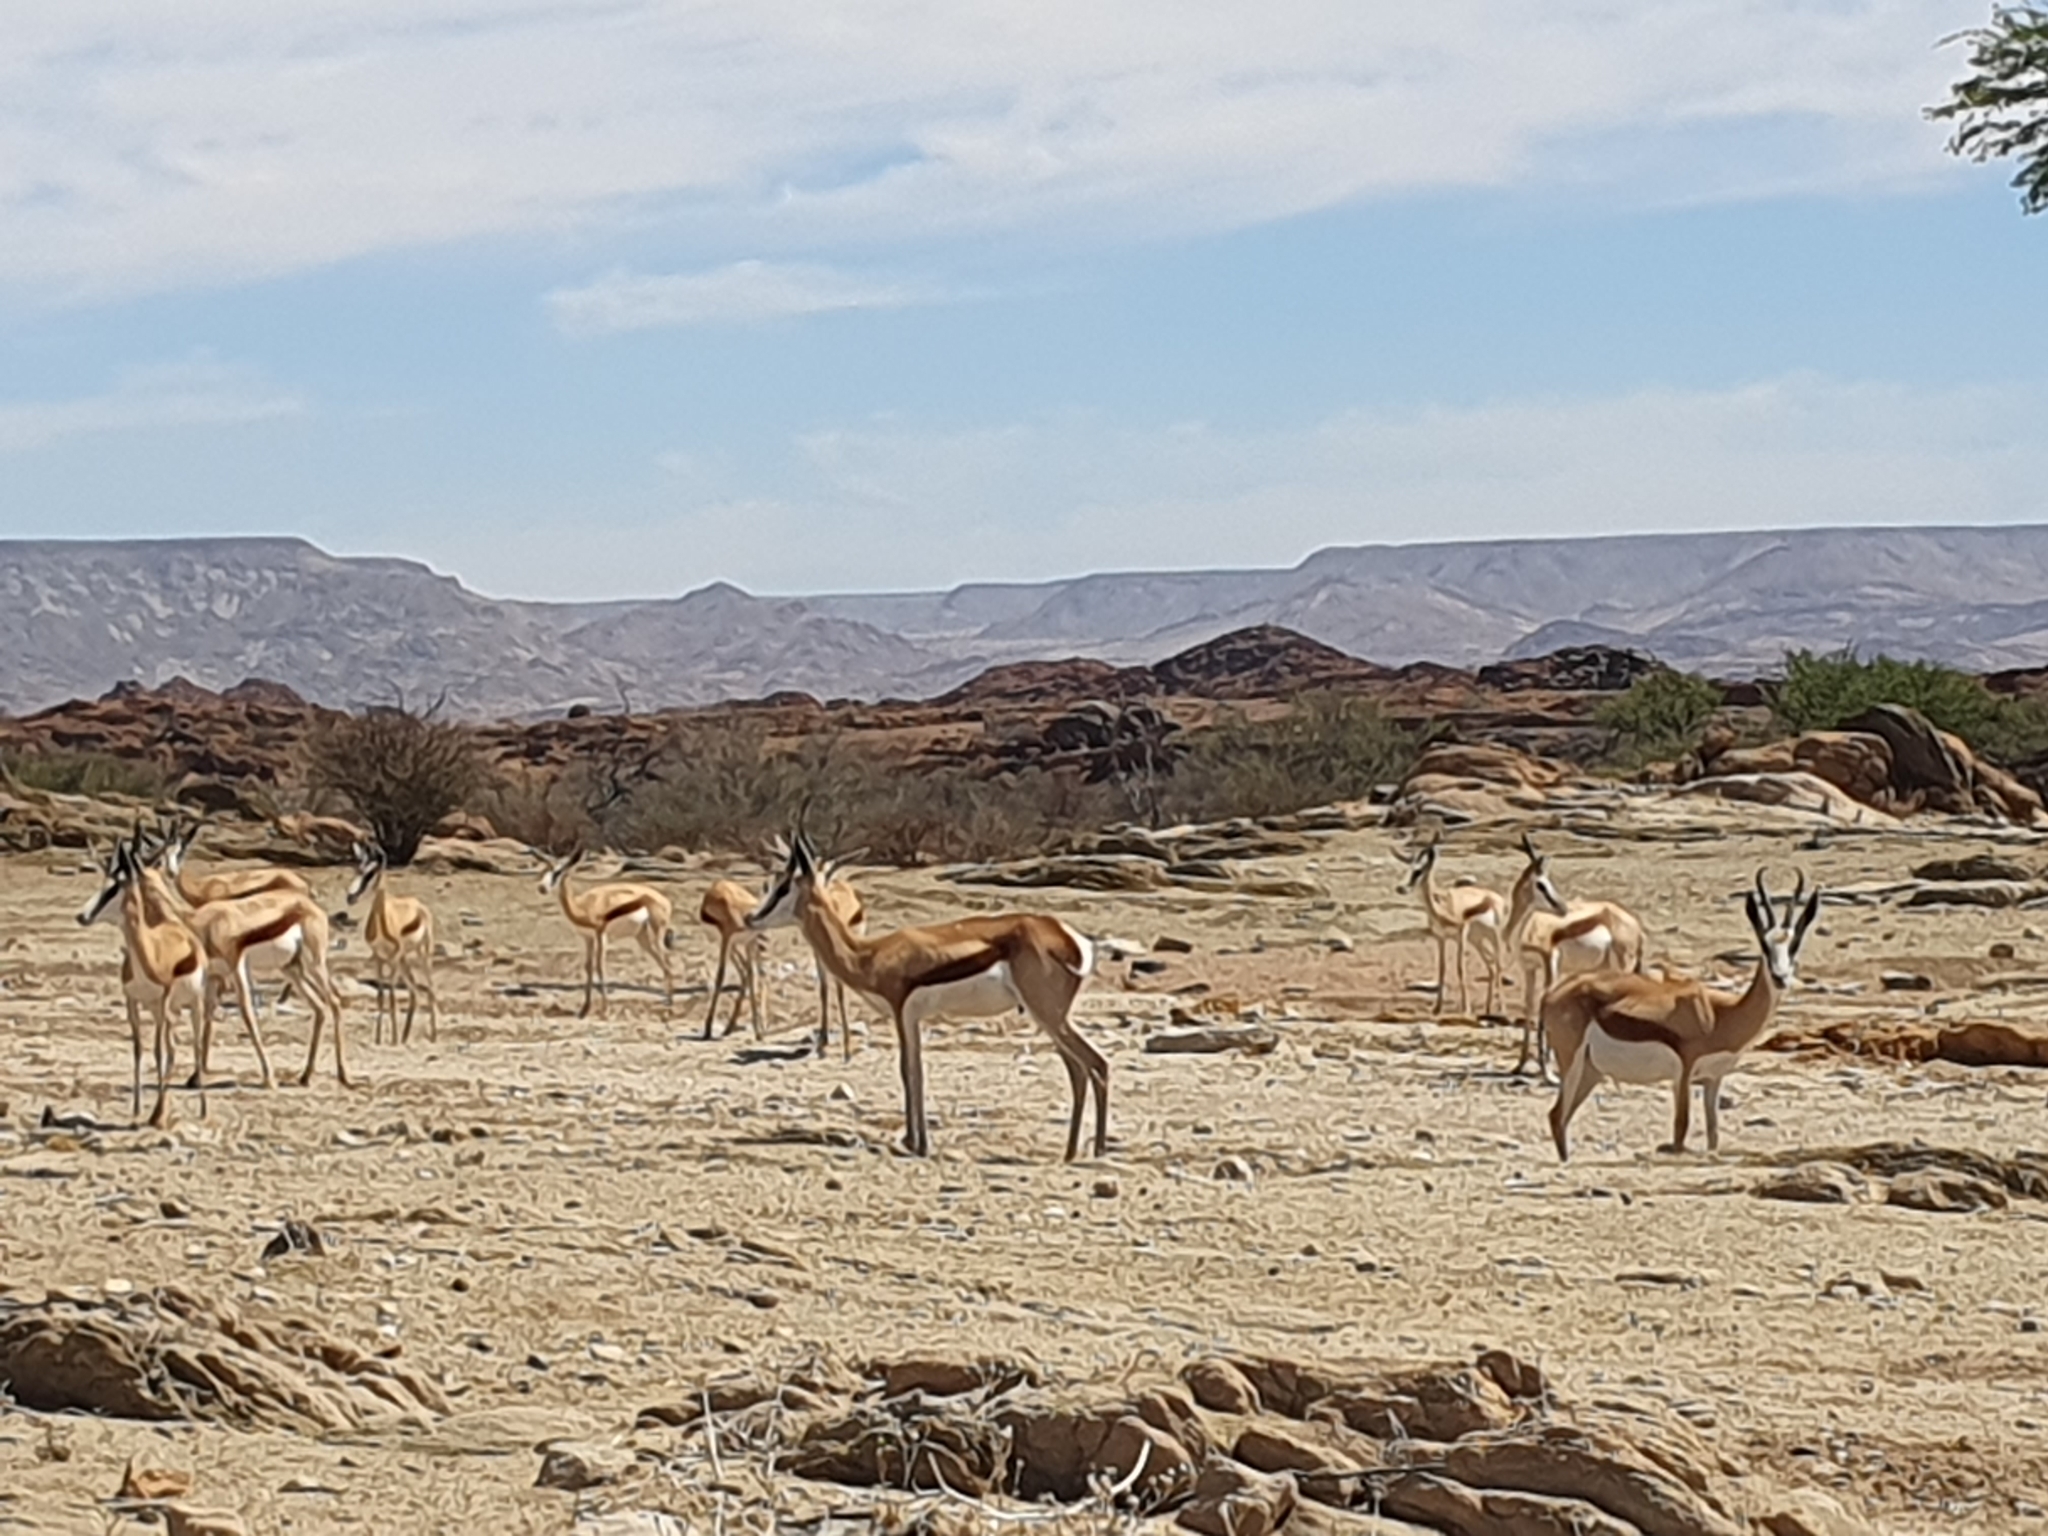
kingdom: Animalia
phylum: Chordata
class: Mammalia
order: Artiodactyla
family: Bovidae
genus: Antidorcas
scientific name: Antidorcas marsupialis
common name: Springbok
